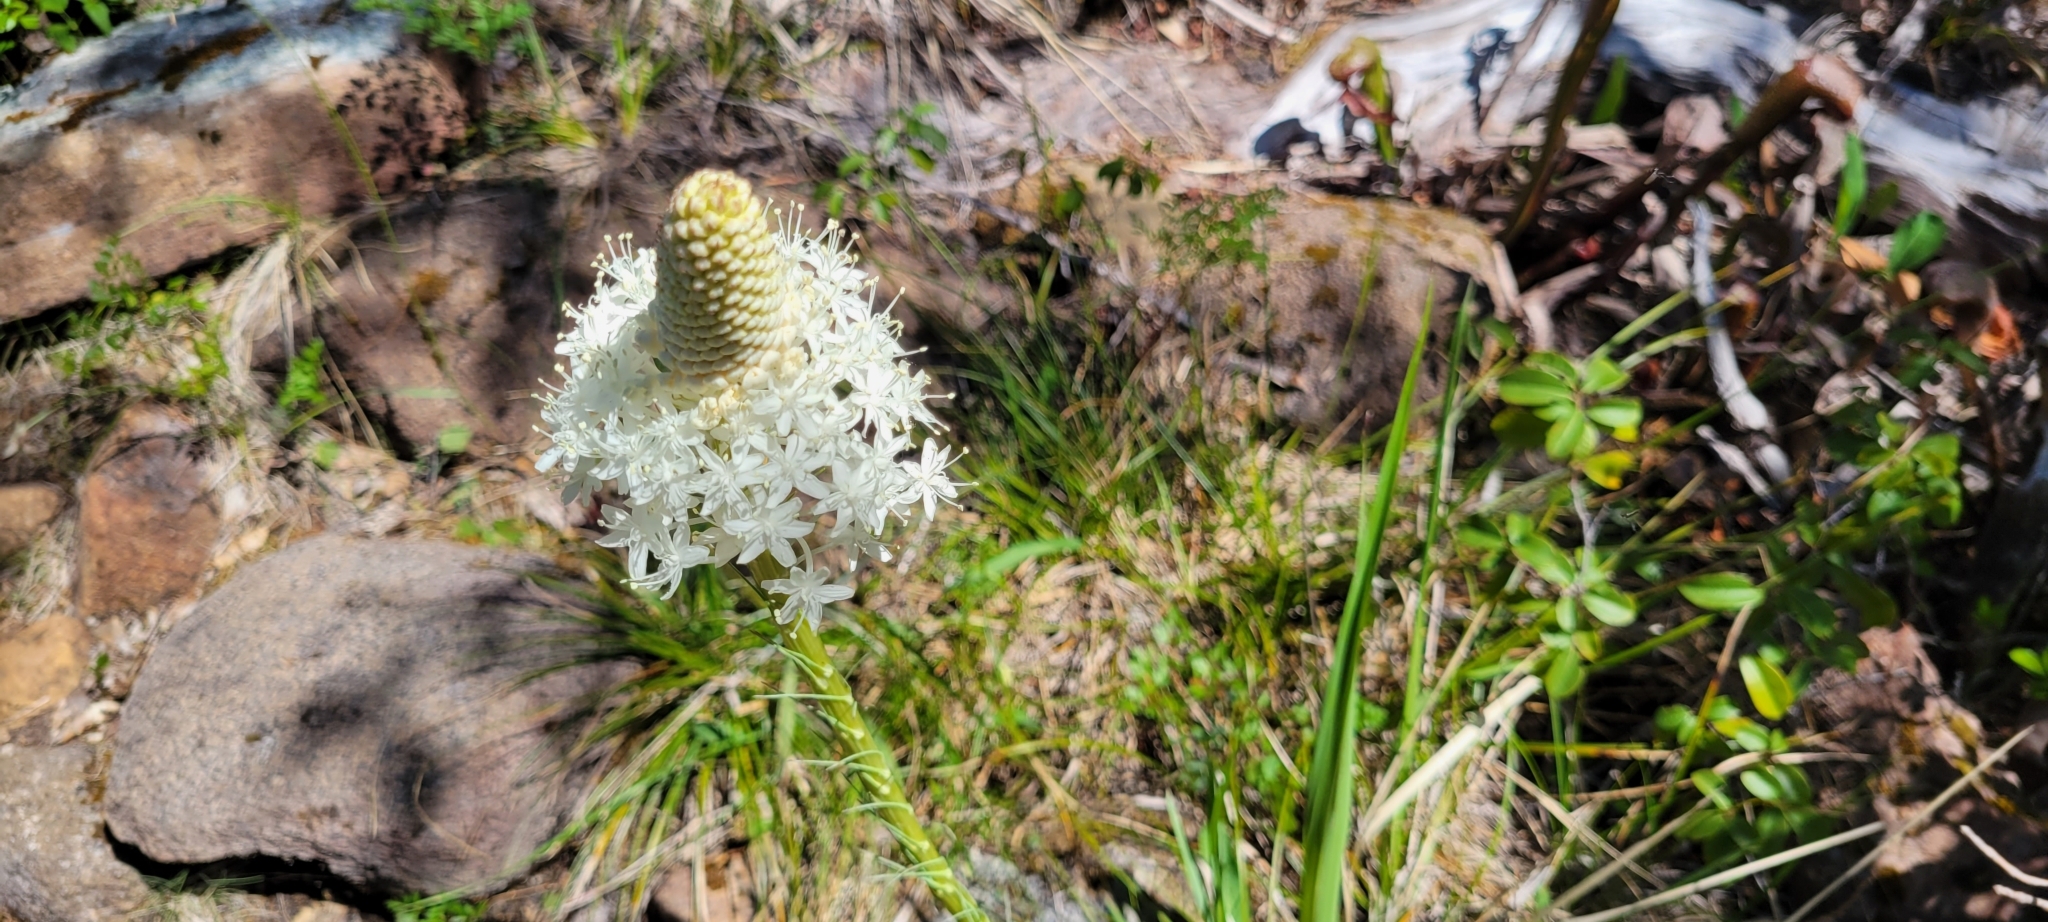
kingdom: Plantae
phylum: Tracheophyta
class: Liliopsida
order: Liliales
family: Melanthiaceae
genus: Xerophyllum
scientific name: Xerophyllum tenax
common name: Bear-grass
